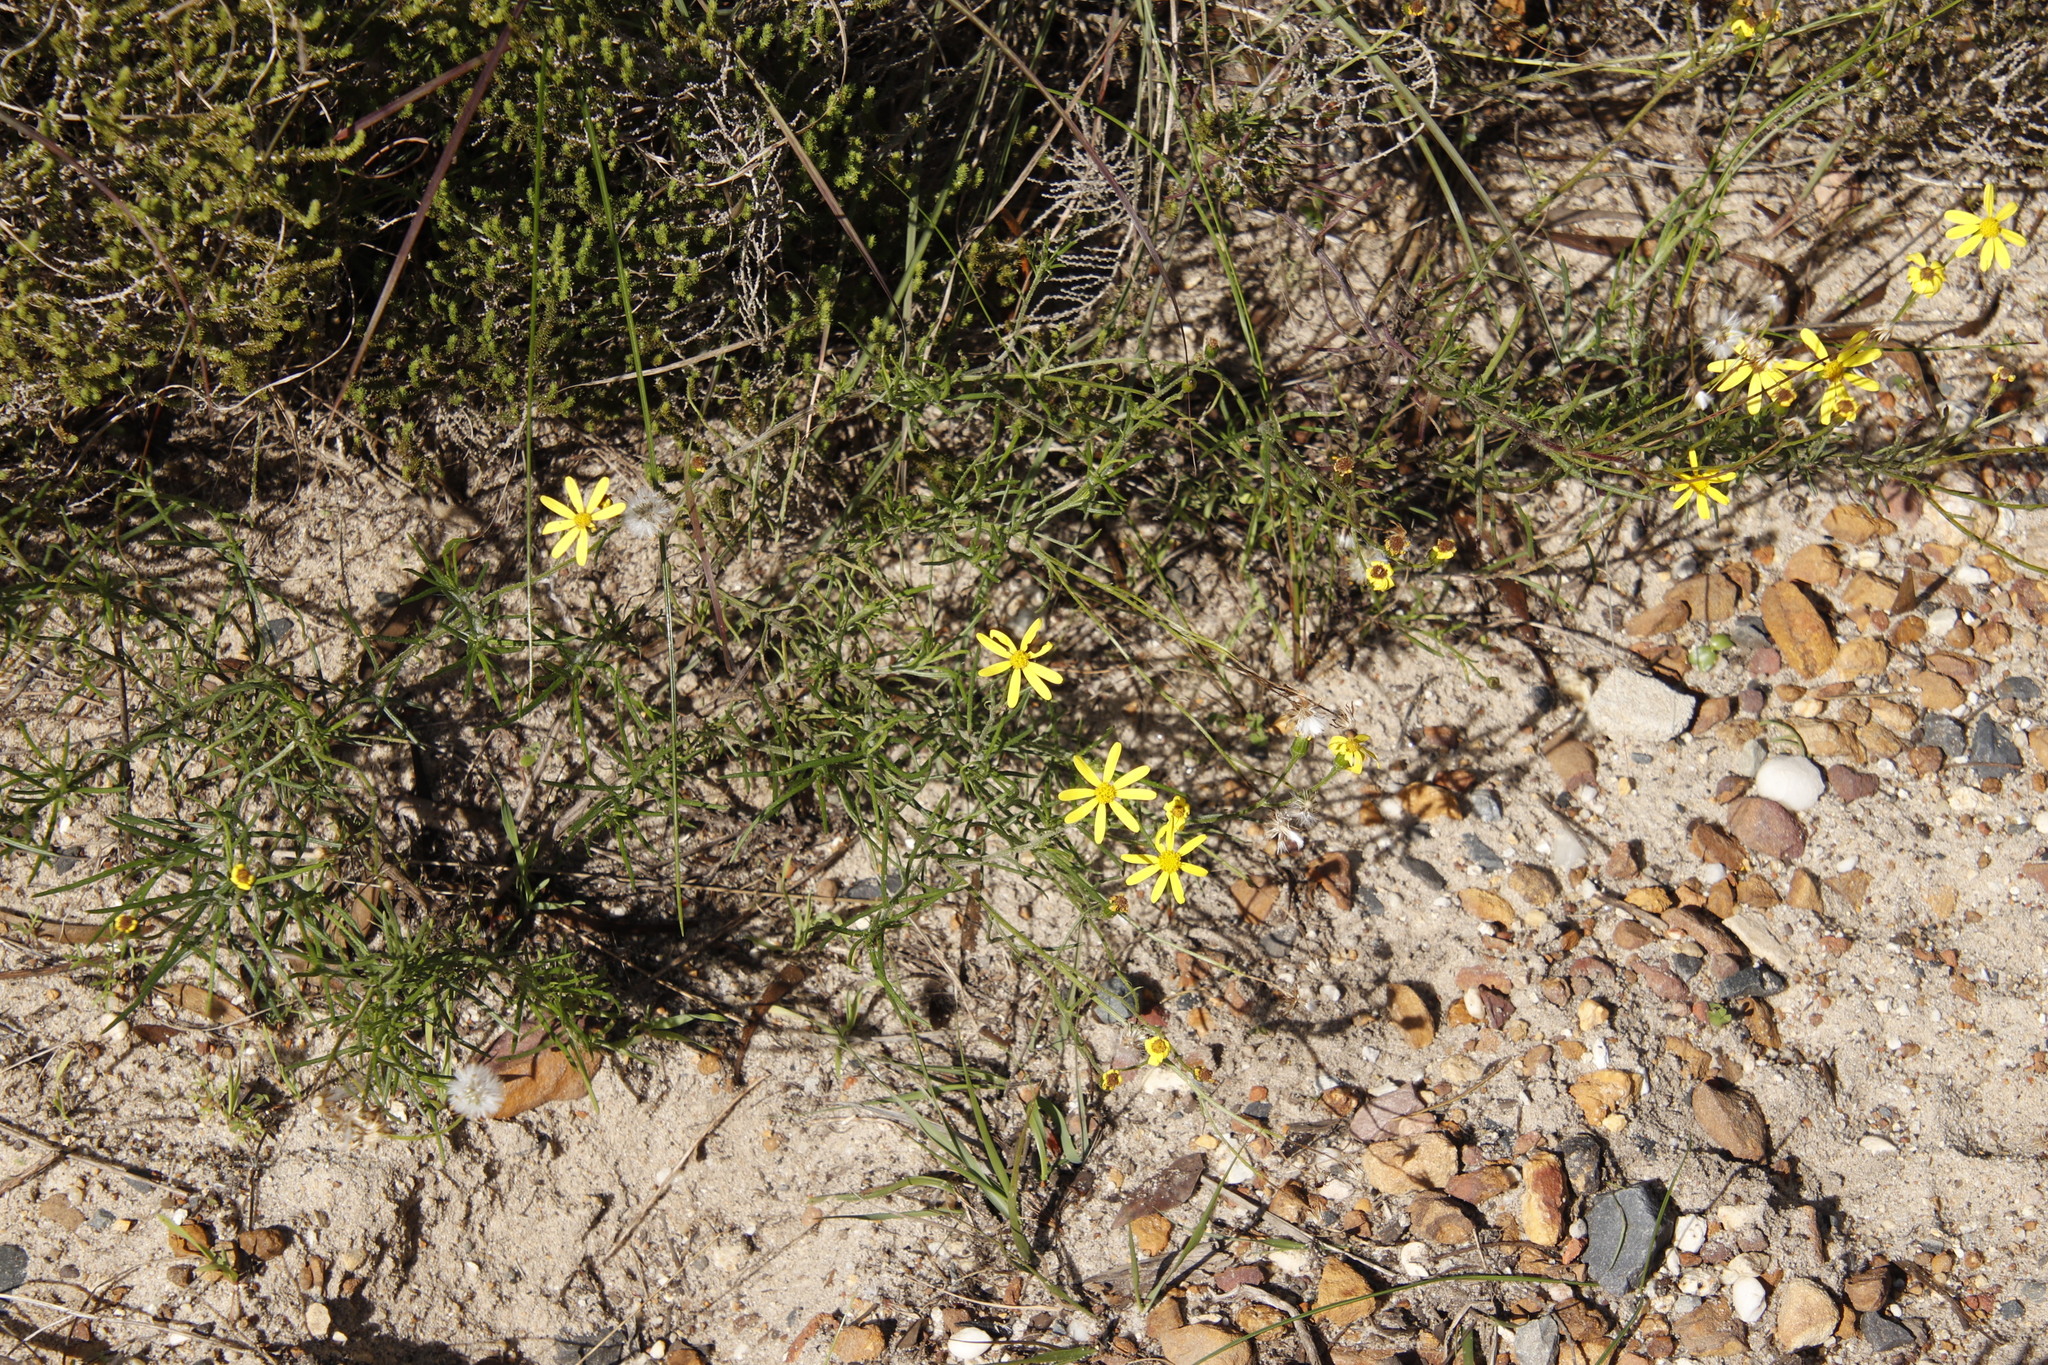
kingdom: Plantae
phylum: Tracheophyta
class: Magnoliopsida
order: Asterales
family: Asteraceae
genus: Senecio
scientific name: Senecio burchellii
